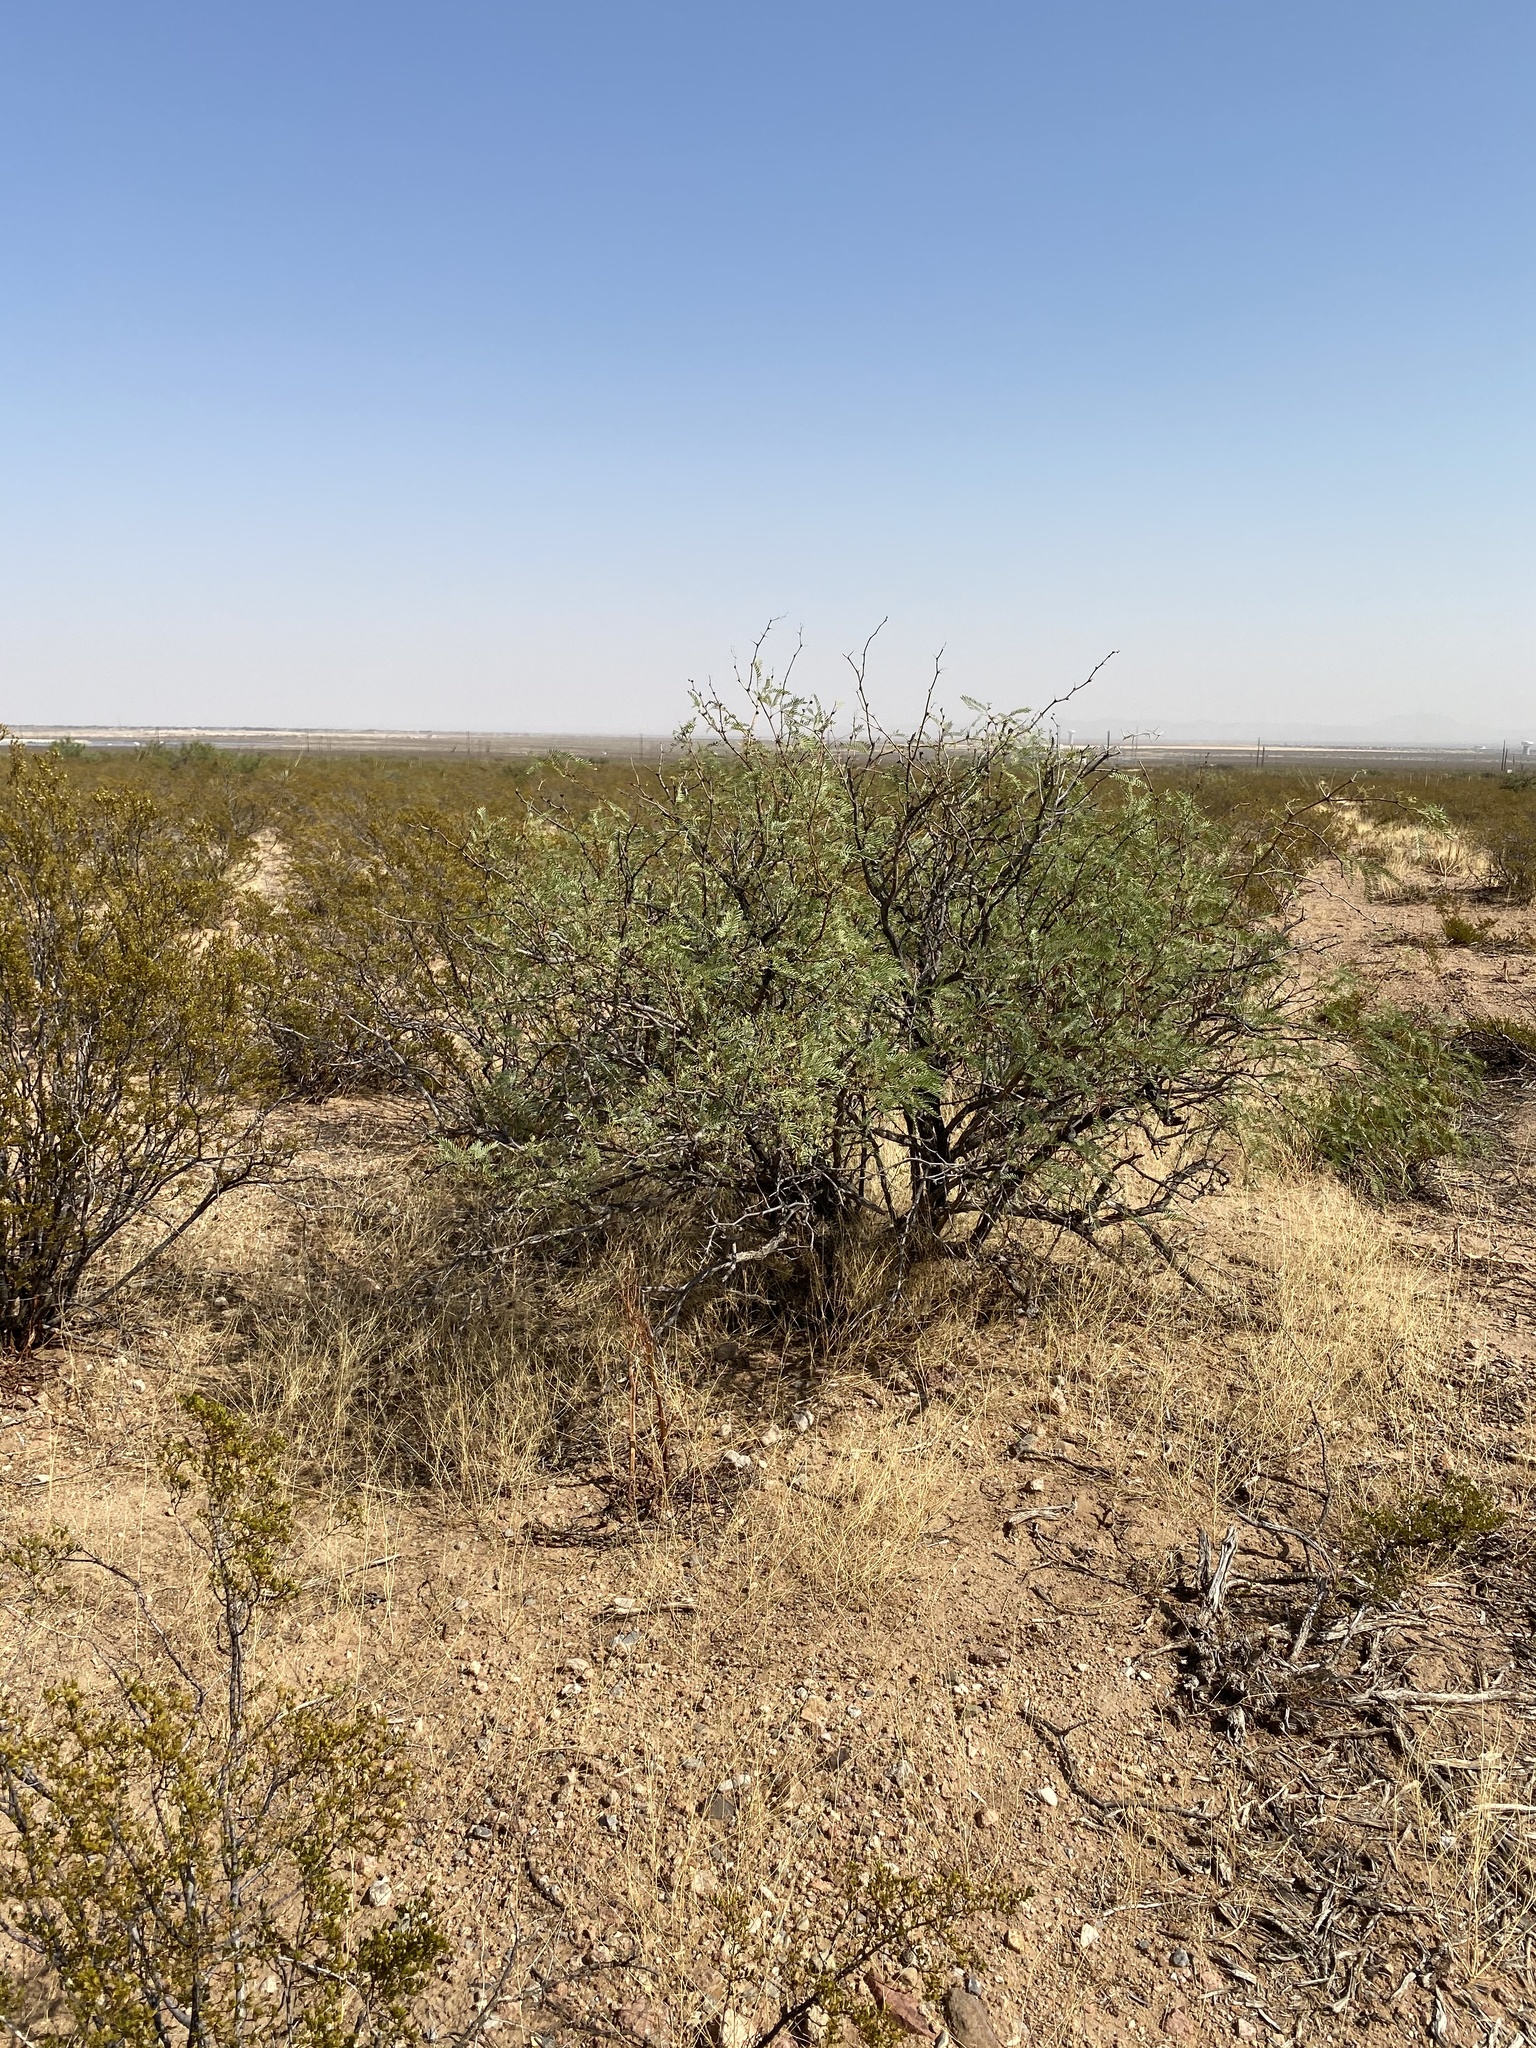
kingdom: Plantae
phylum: Tracheophyta
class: Magnoliopsida
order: Fabales
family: Fabaceae
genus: Prosopis
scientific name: Prosopis glandulosa
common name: Honey mesquite
